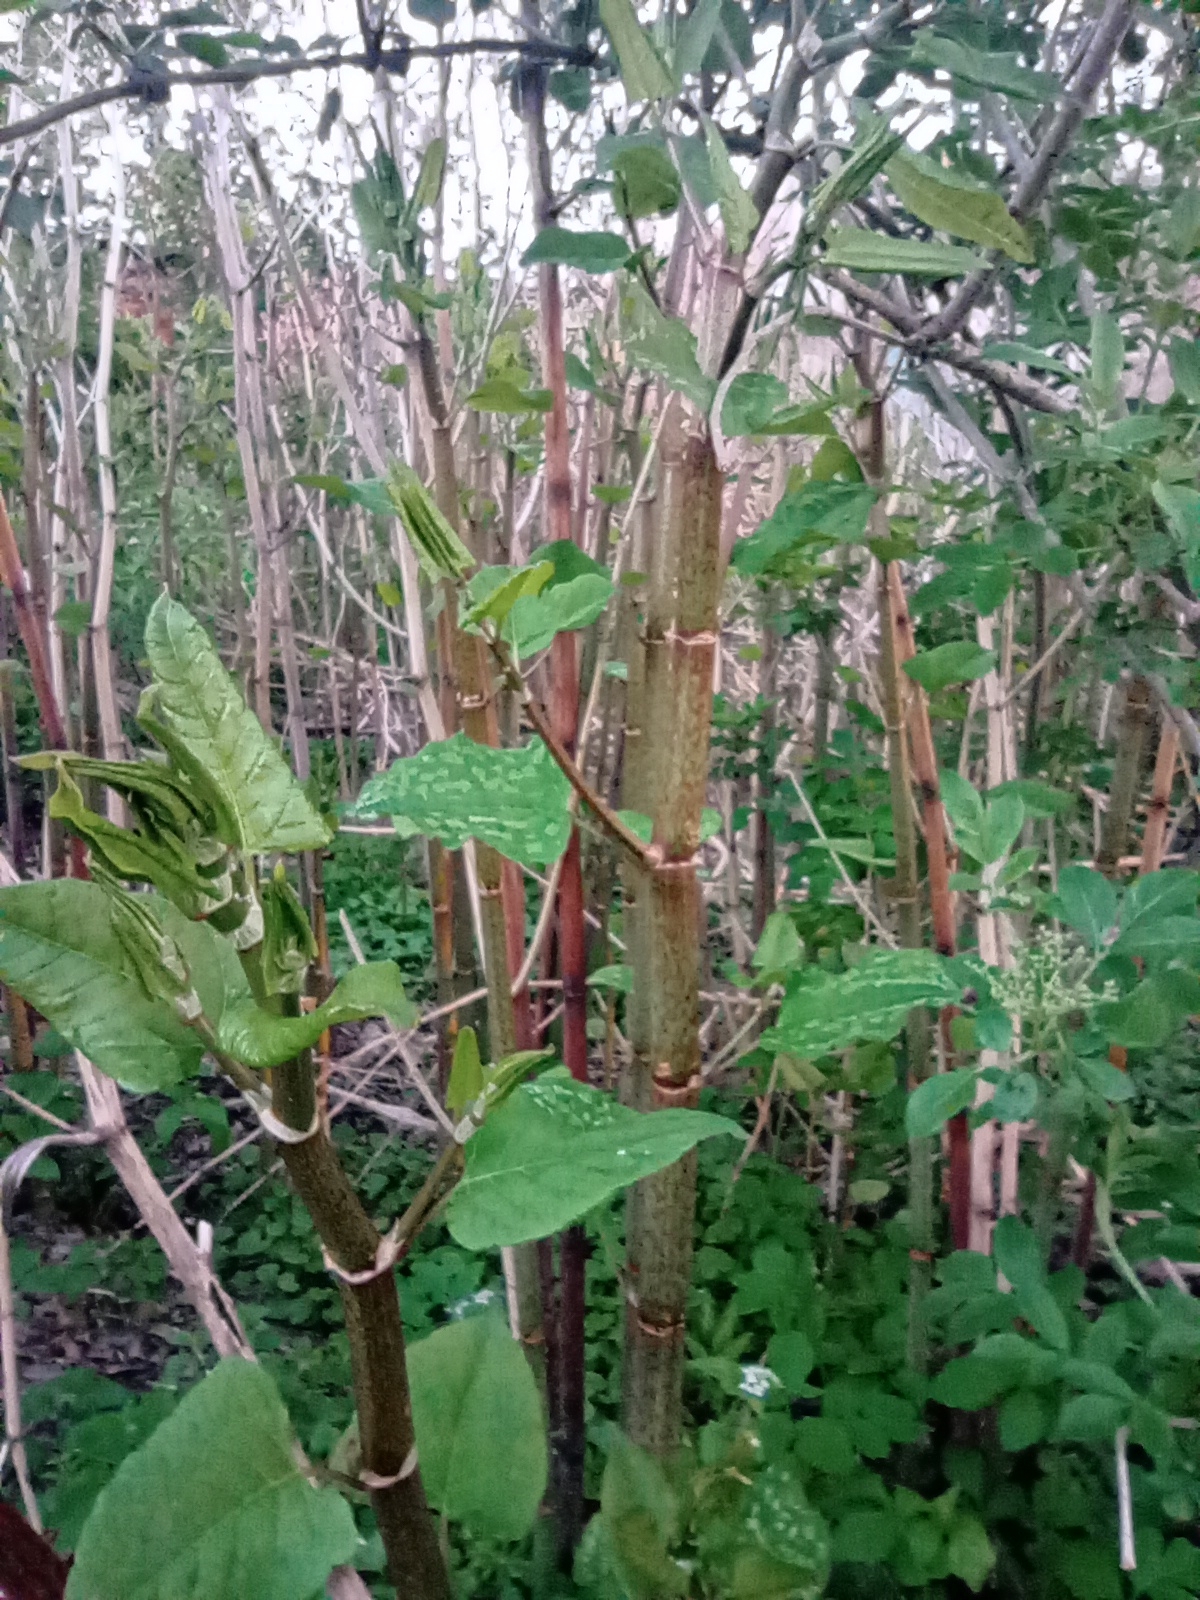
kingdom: Plantae
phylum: Tracheophyta
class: Magnoliopsida
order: Caryophyllales
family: Polygonaceae
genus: Reynoutria
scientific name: Reynoutria japonica
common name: Japanese knotweed
